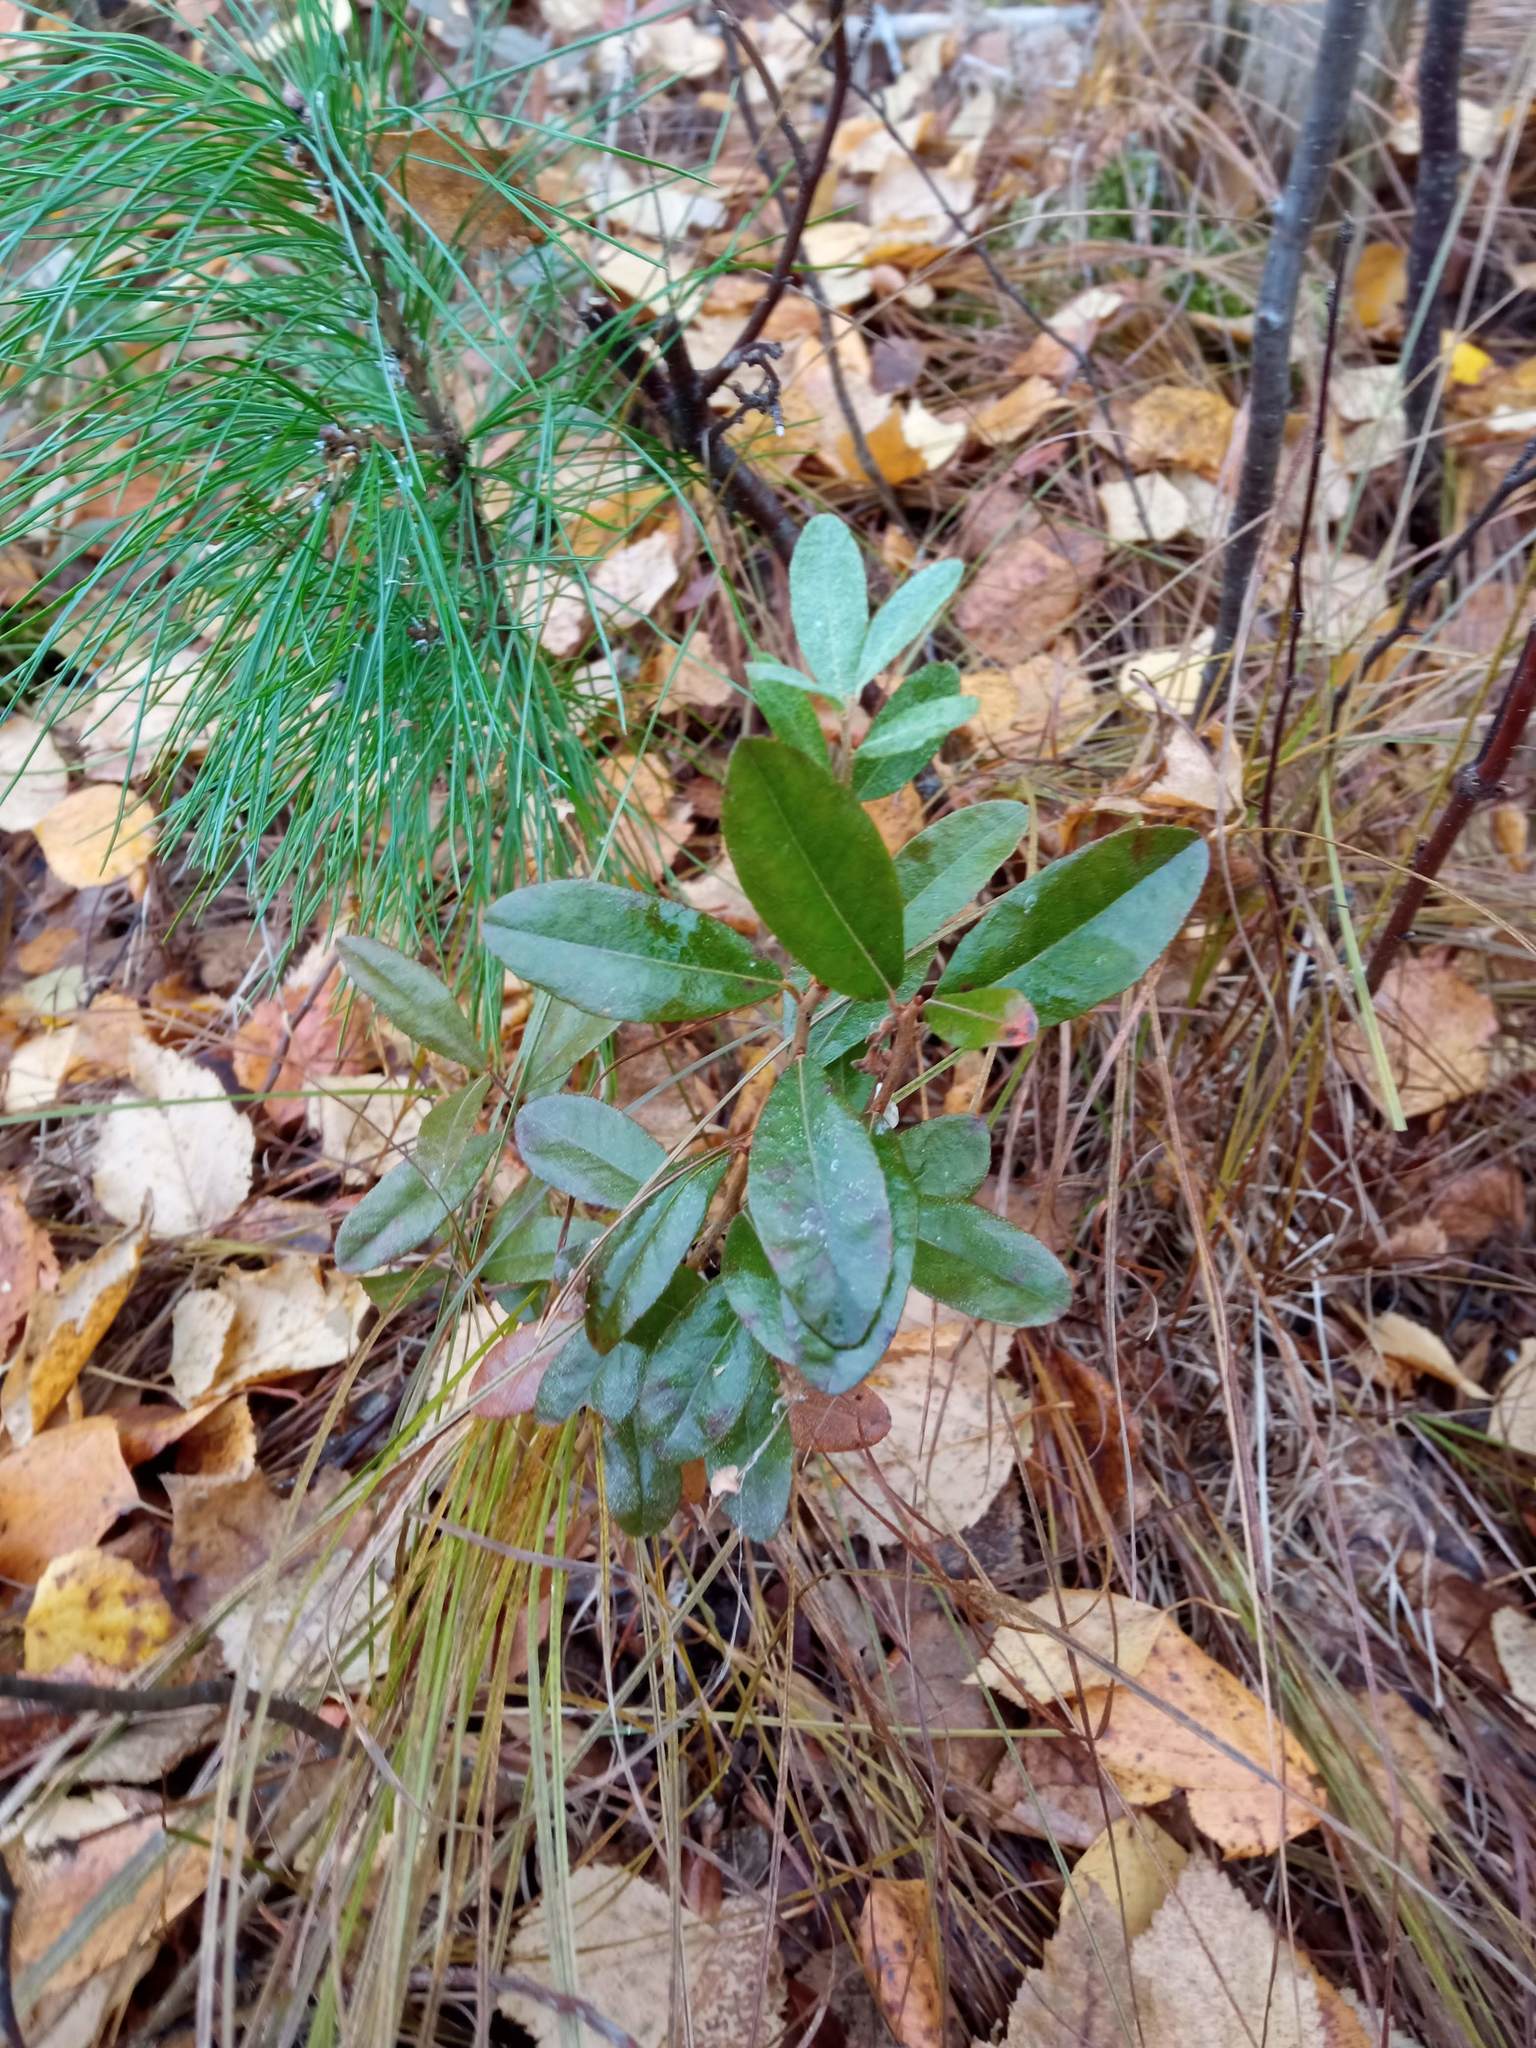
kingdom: Plantae
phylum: Tracheophyta
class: Magnoliopsida
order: Ericales
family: Ericaceae
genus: Chamaedaphne
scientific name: Chamaedaphne calyculata
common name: Leatherleaf
